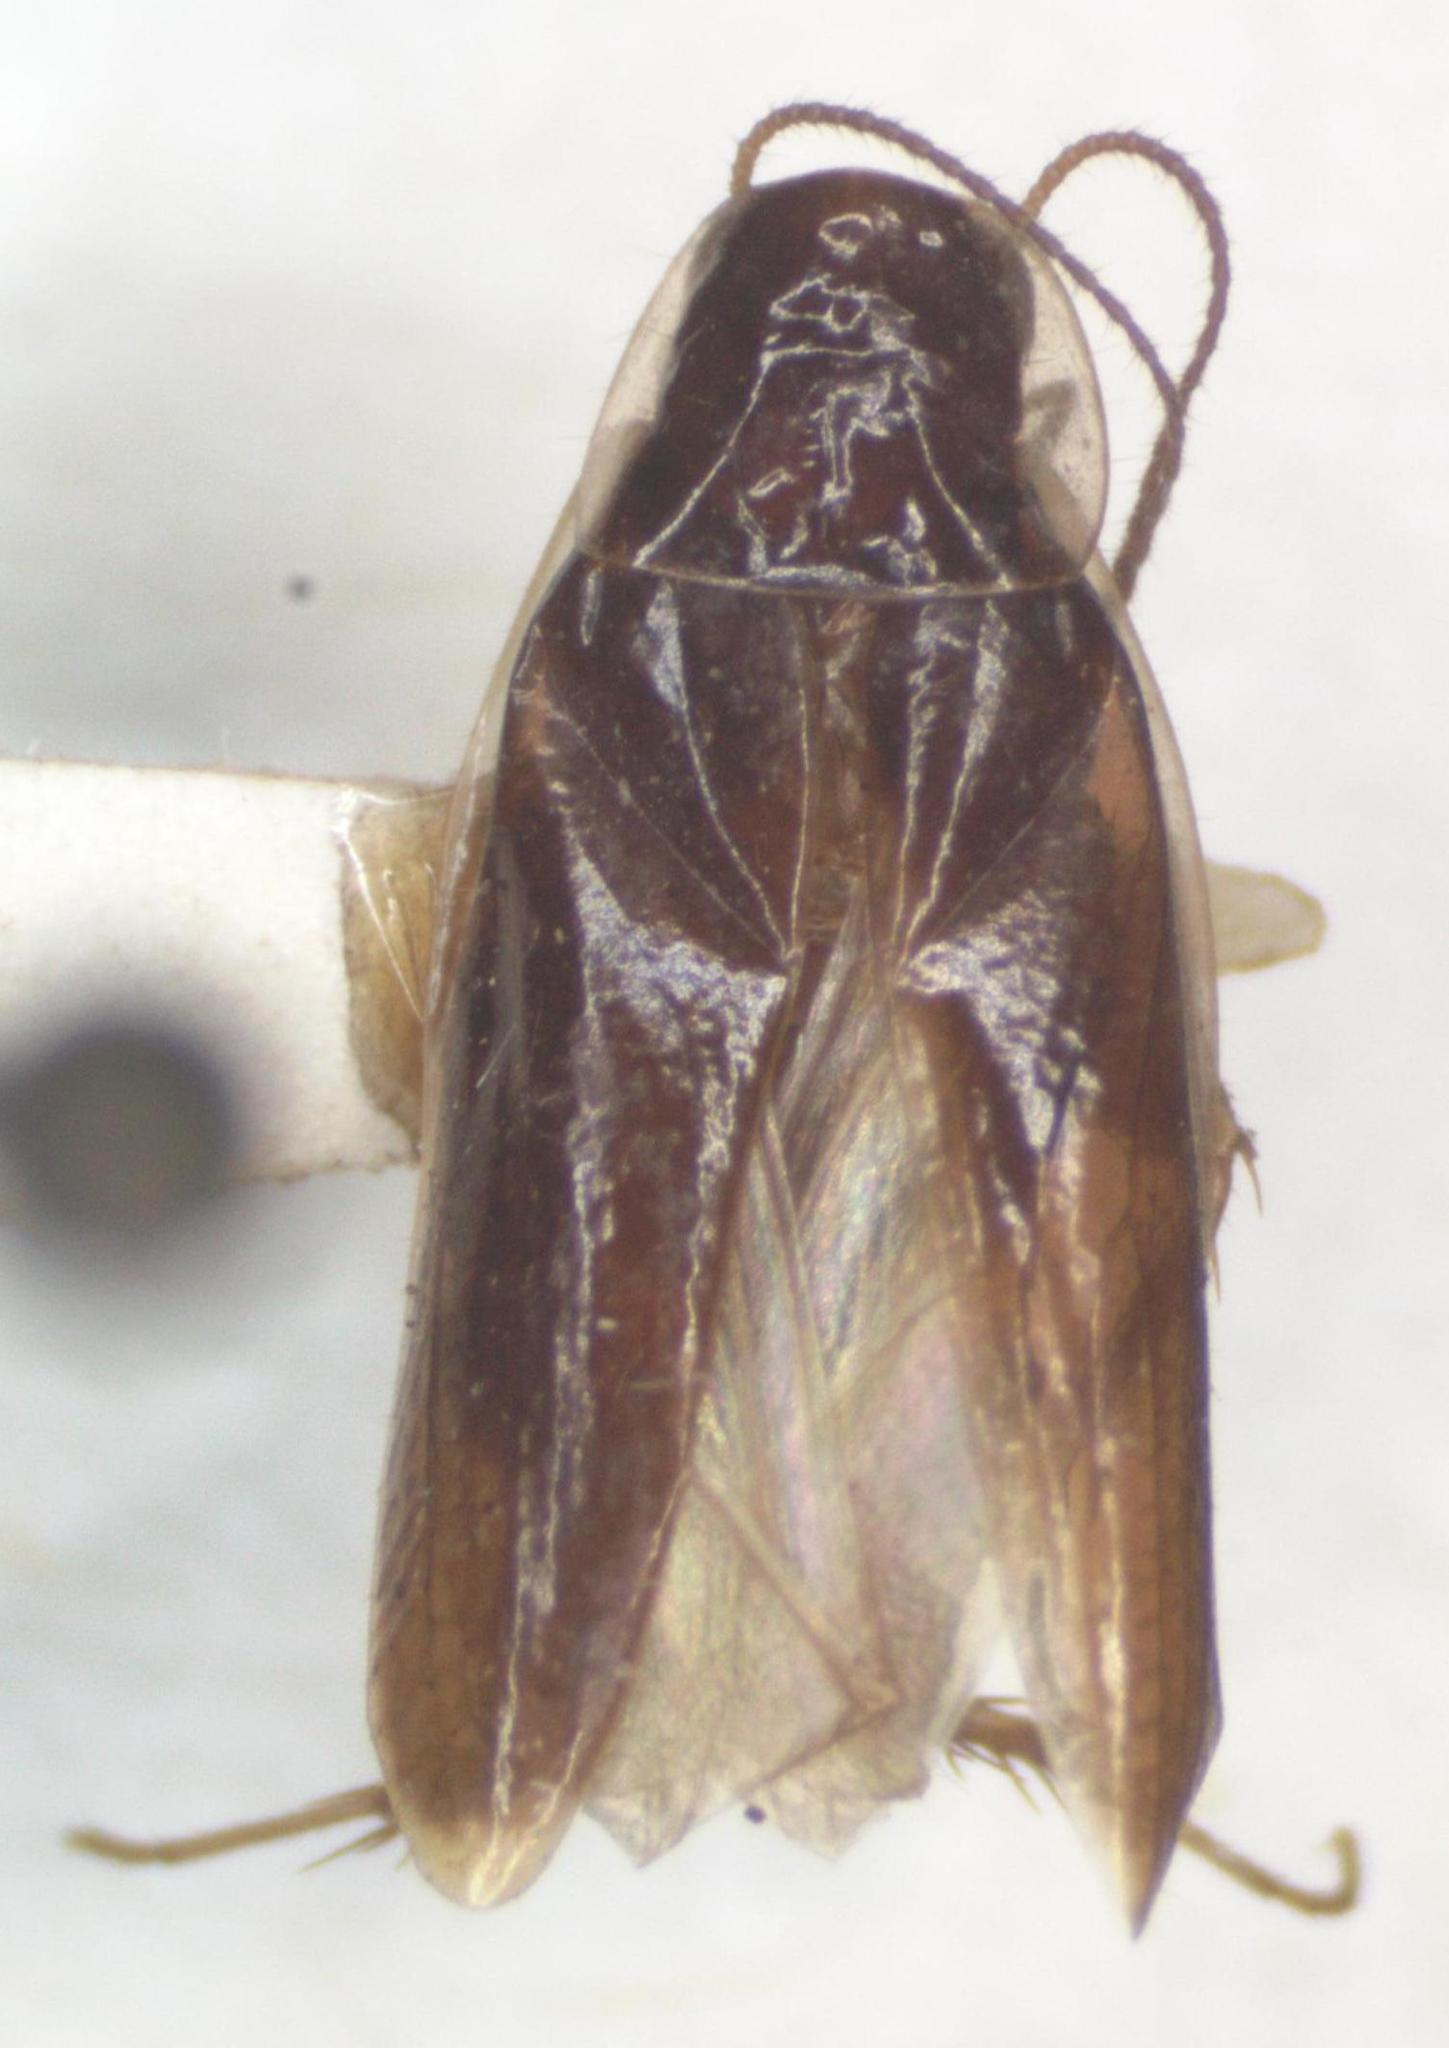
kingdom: Animalia
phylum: Arthropoda
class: Insecta
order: Blattodea
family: Anaplectidae
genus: Anaplecta
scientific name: Anaplecta fallax
